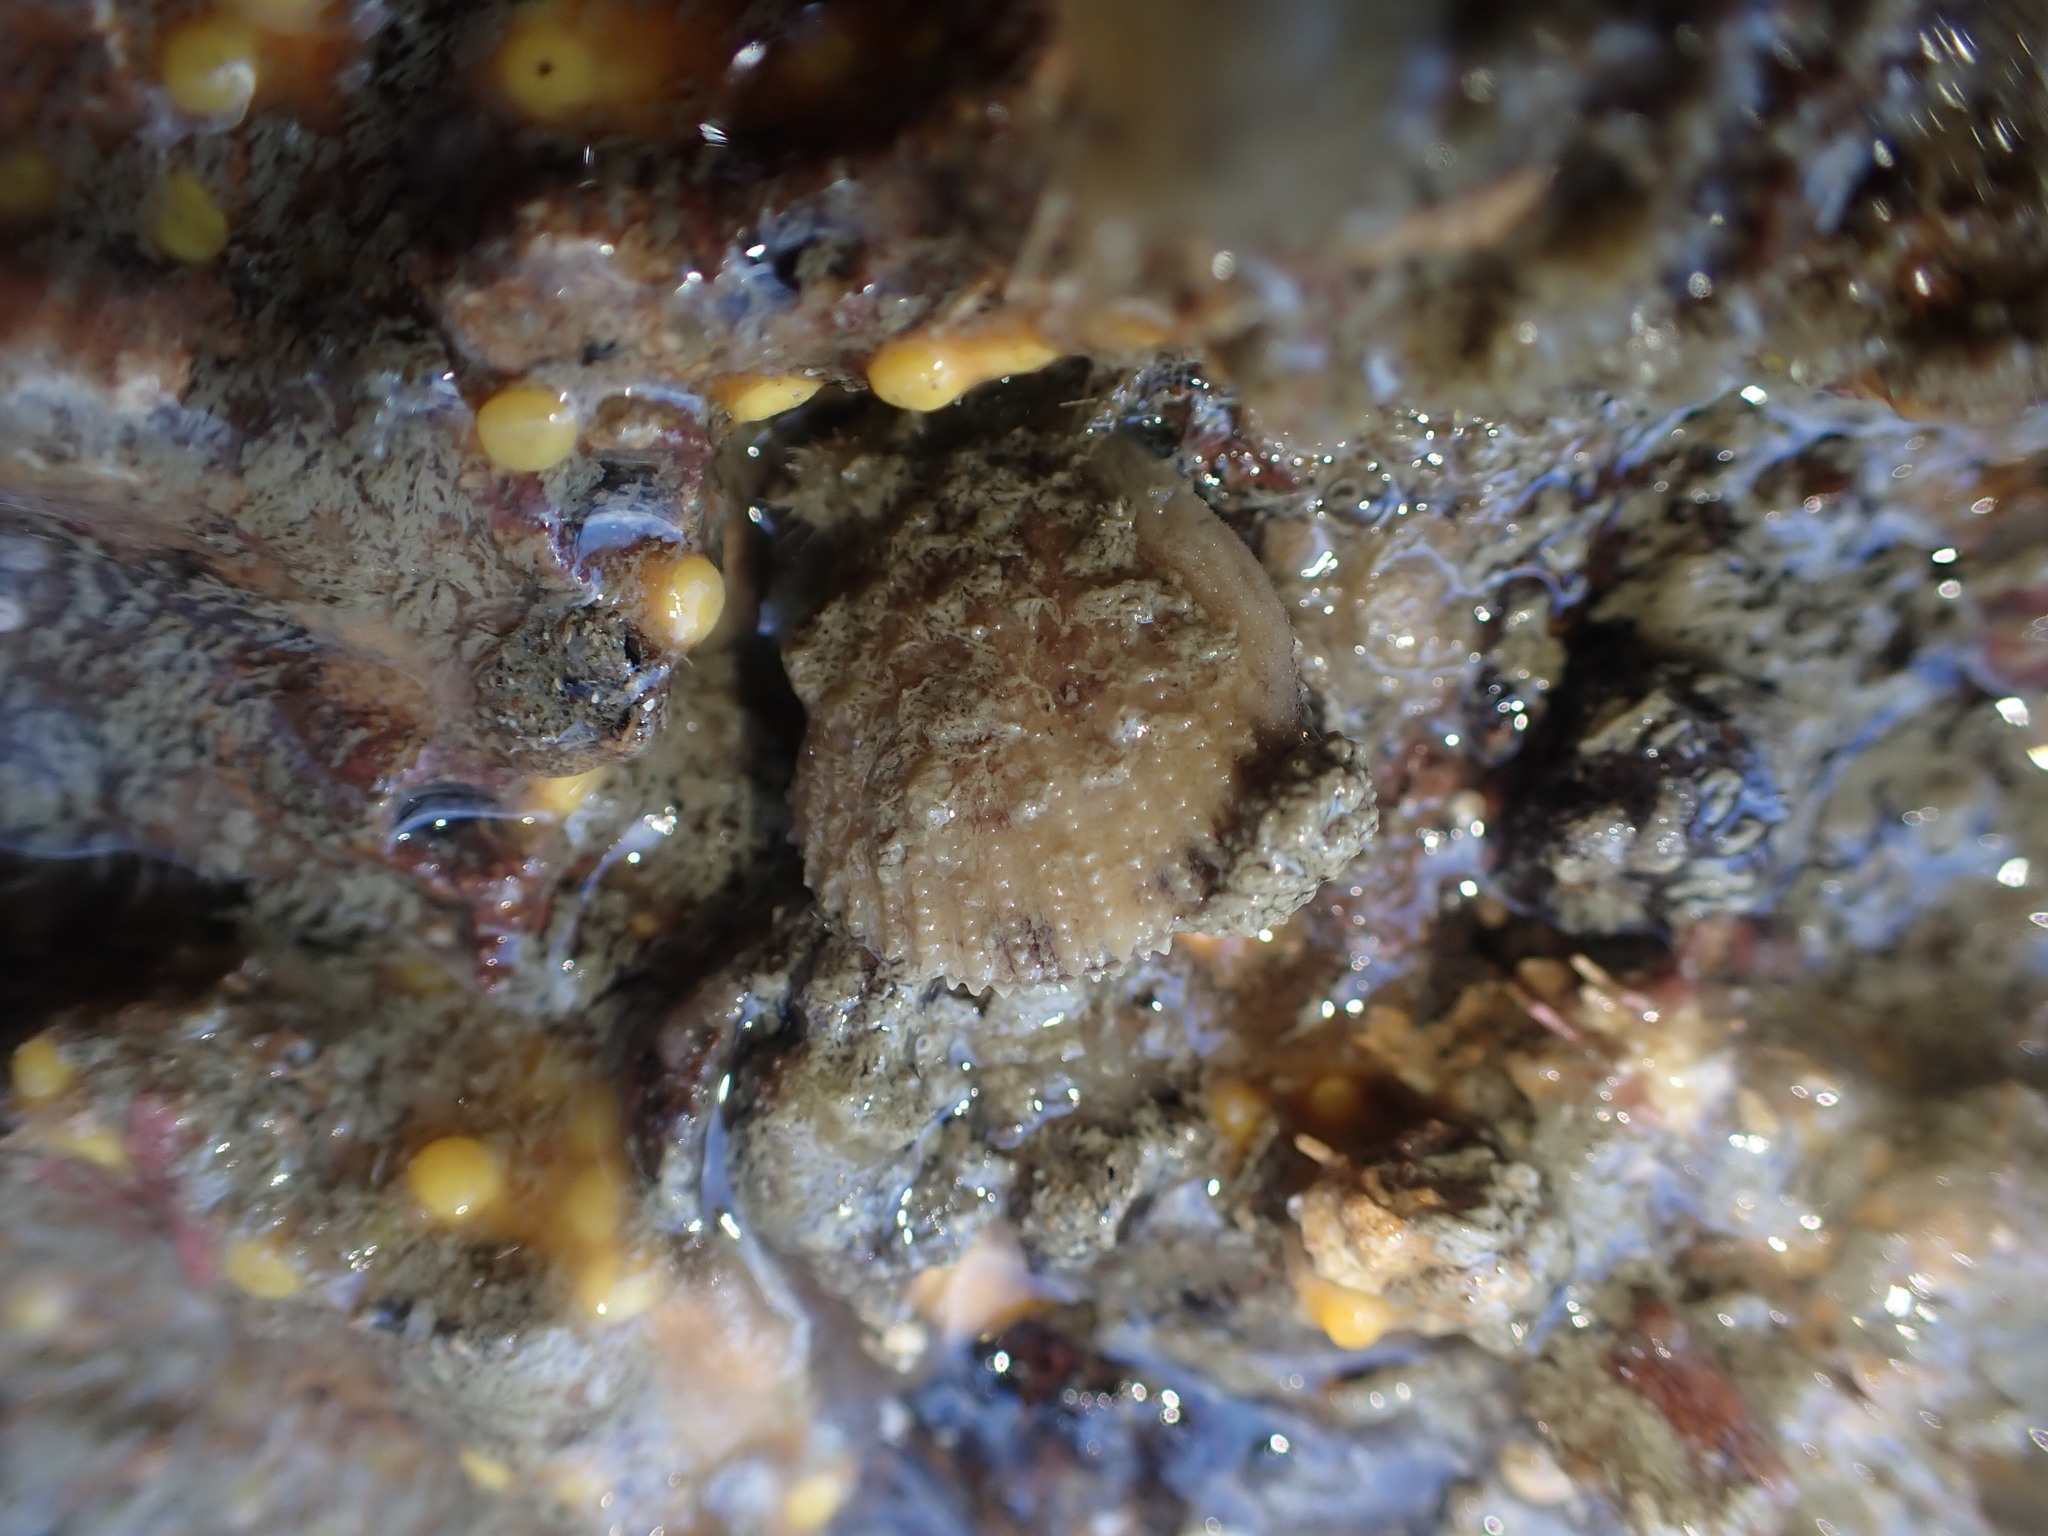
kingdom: Animalia
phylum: Mollusca
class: Bivalvia
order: Pectinida
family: Pectinidae
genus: Talochlamys
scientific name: Talochlamys zelandiae
